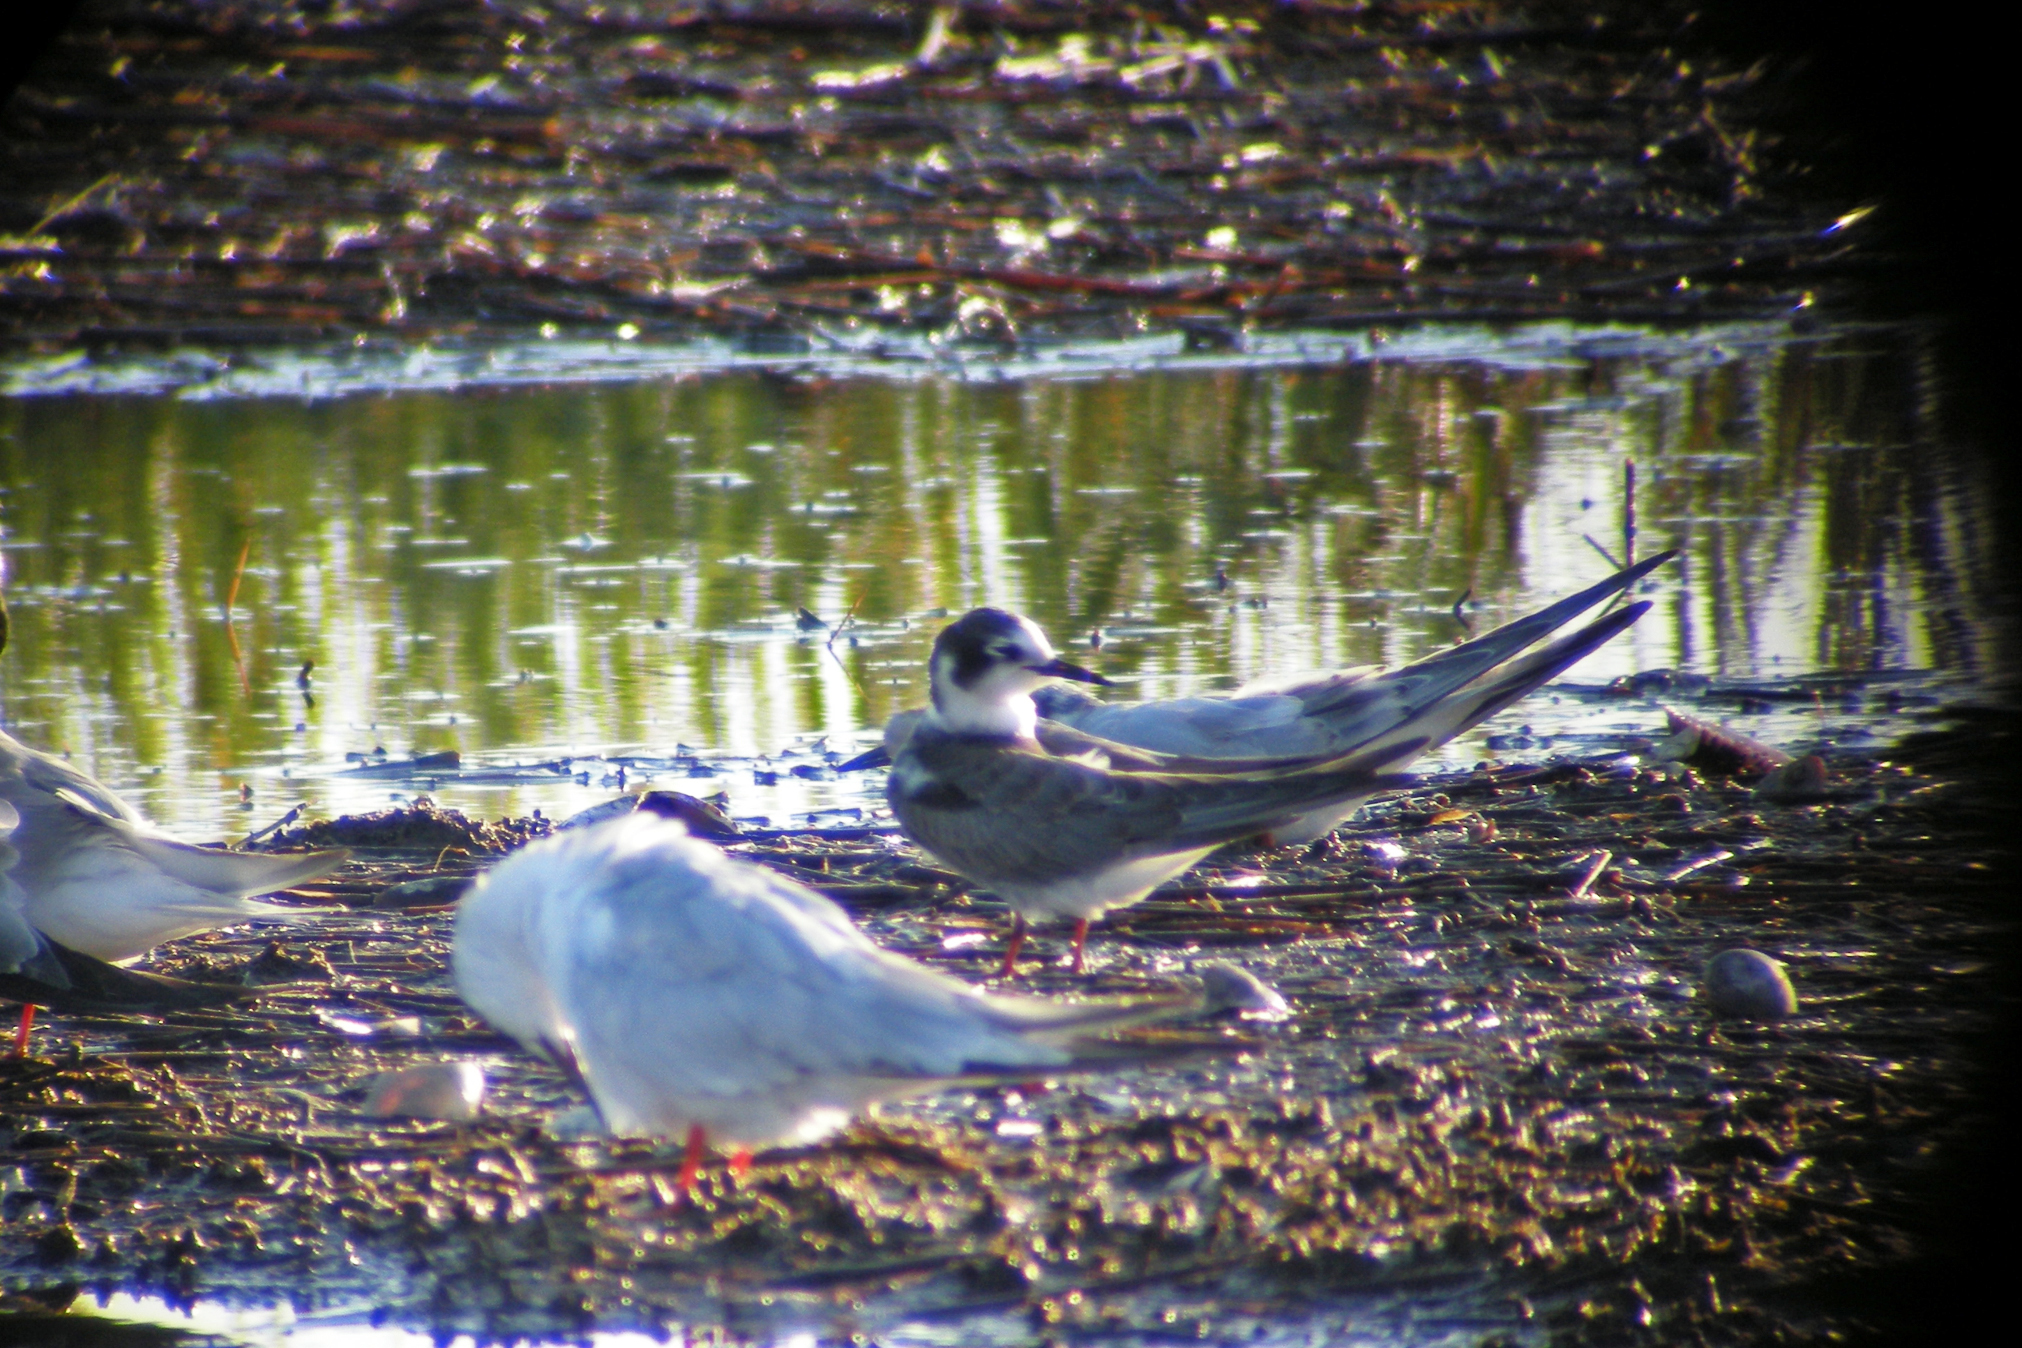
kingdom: Animalia
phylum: Chordata
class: Aves
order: Charadriiformes
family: Laridae
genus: Chlidonias
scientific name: Chlidonias niger
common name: Black tern
